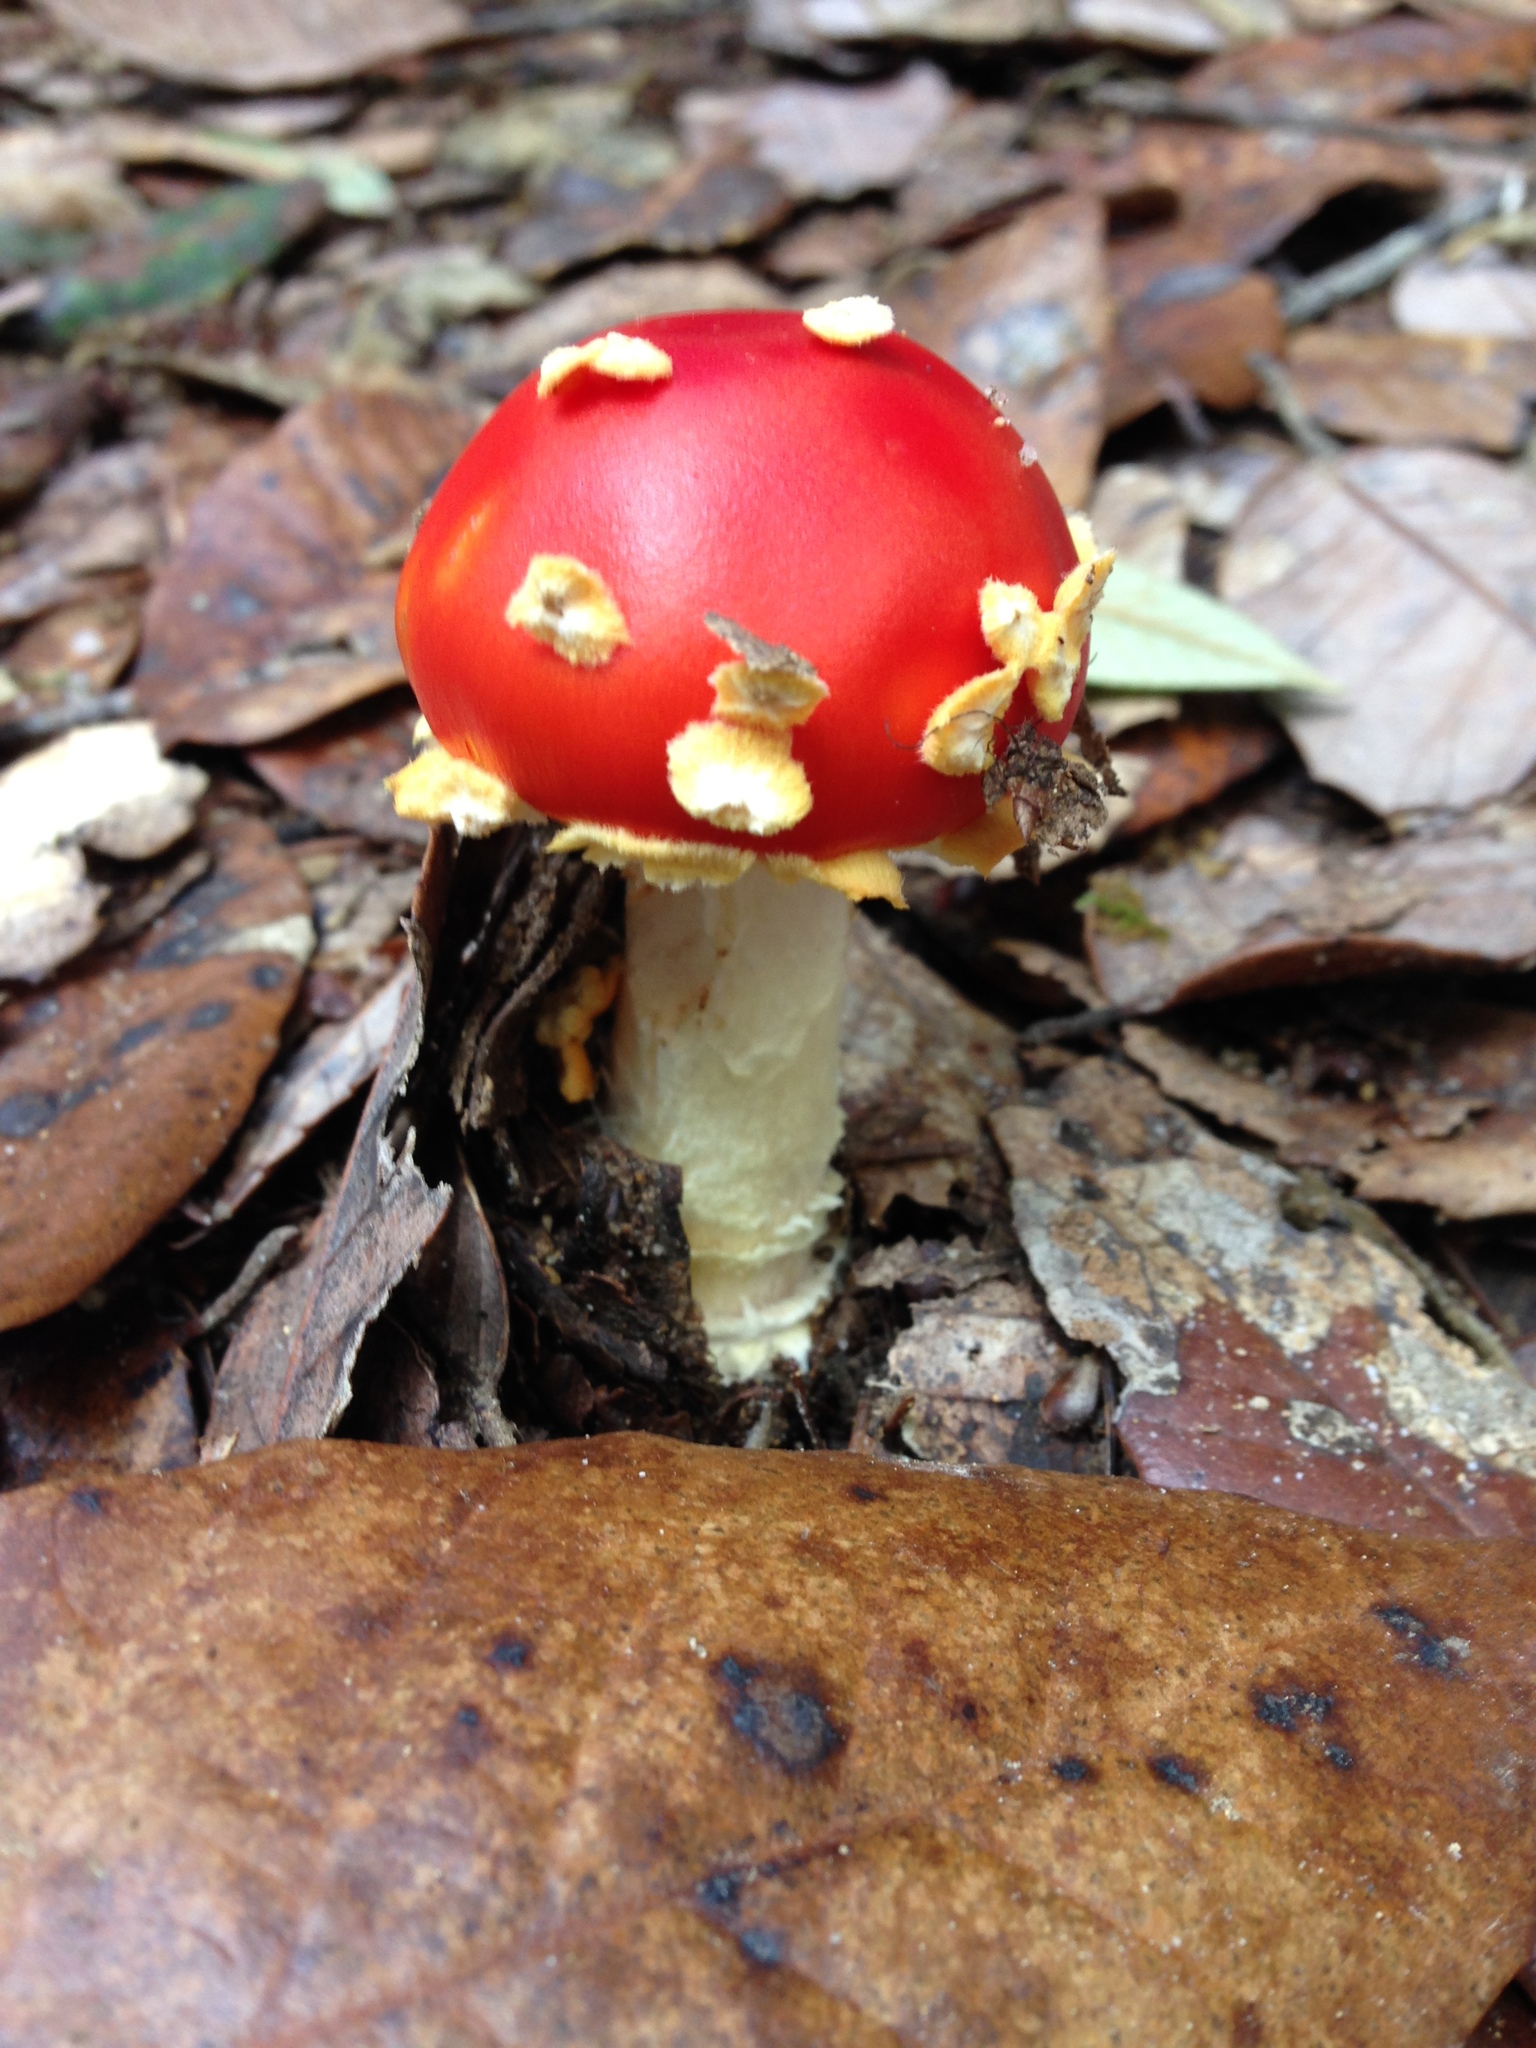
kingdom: Fungi
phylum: Basidiomycota
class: Agaricomycetes
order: Agaricales
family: Amanitaceae
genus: Amanita
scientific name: Amanita muscaria
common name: Fly agaric
